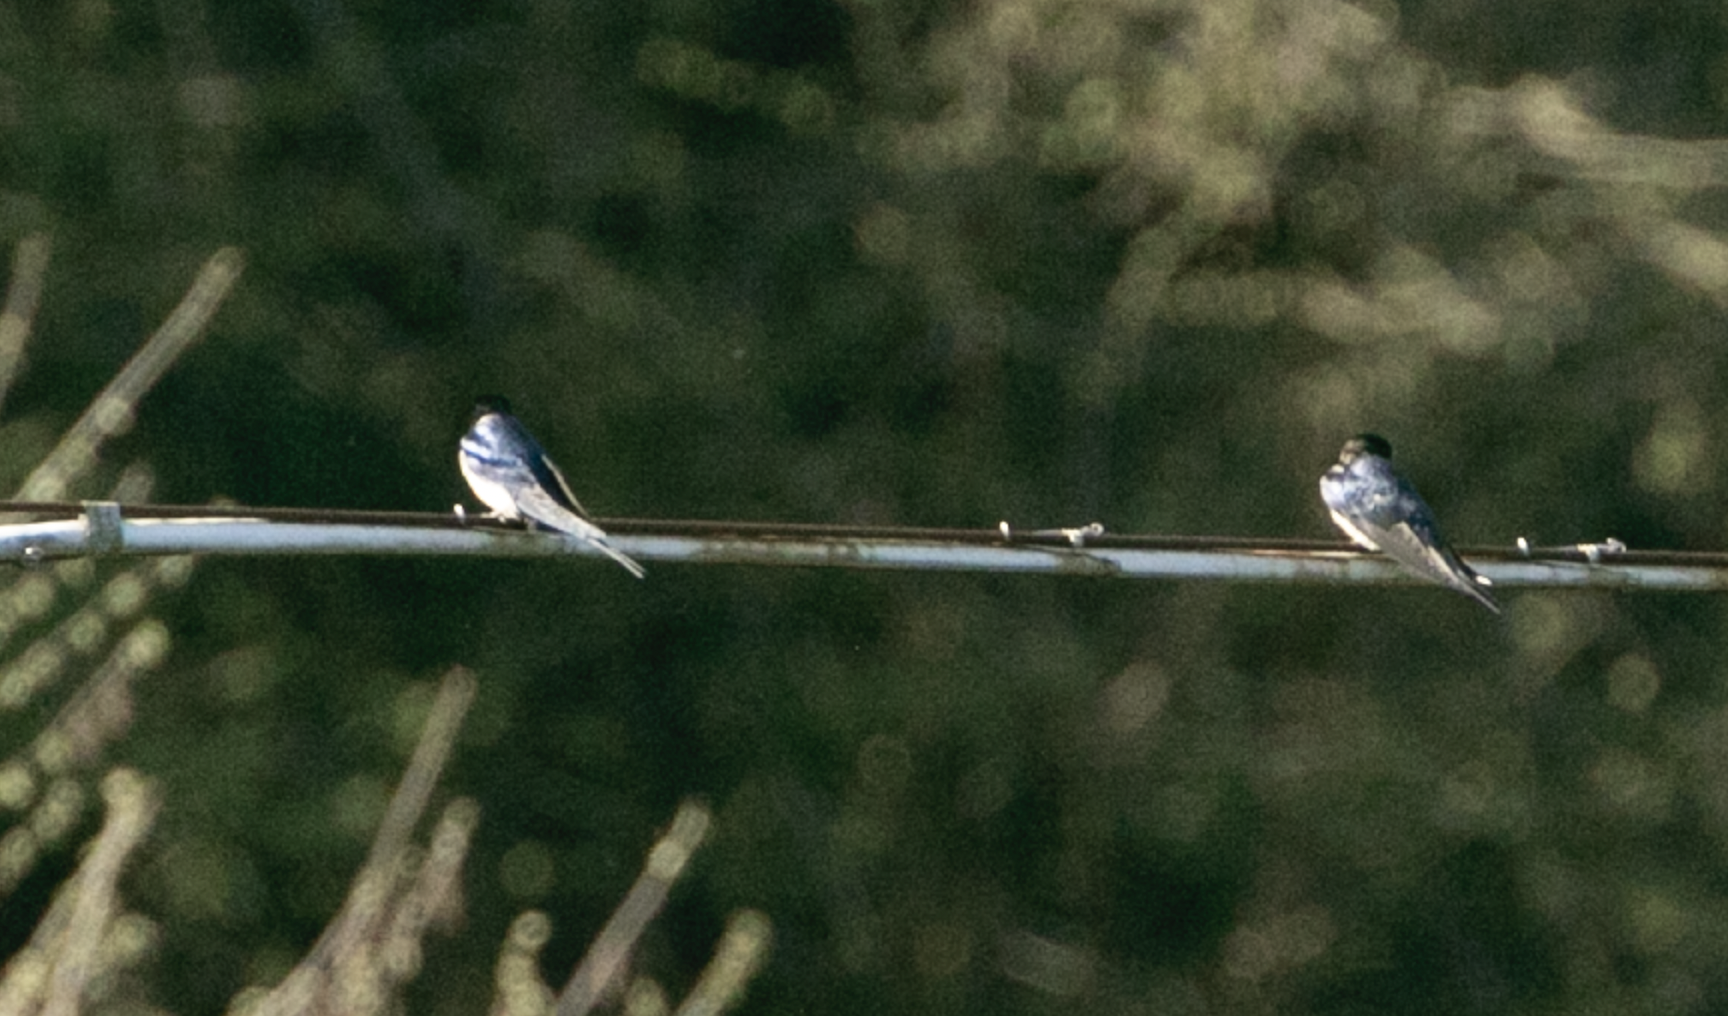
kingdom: Animalia
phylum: Chordata
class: Aves
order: Passeriformes
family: Hirundinidae
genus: Hirundo
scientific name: Hirundo rustica
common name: Barn swallow
